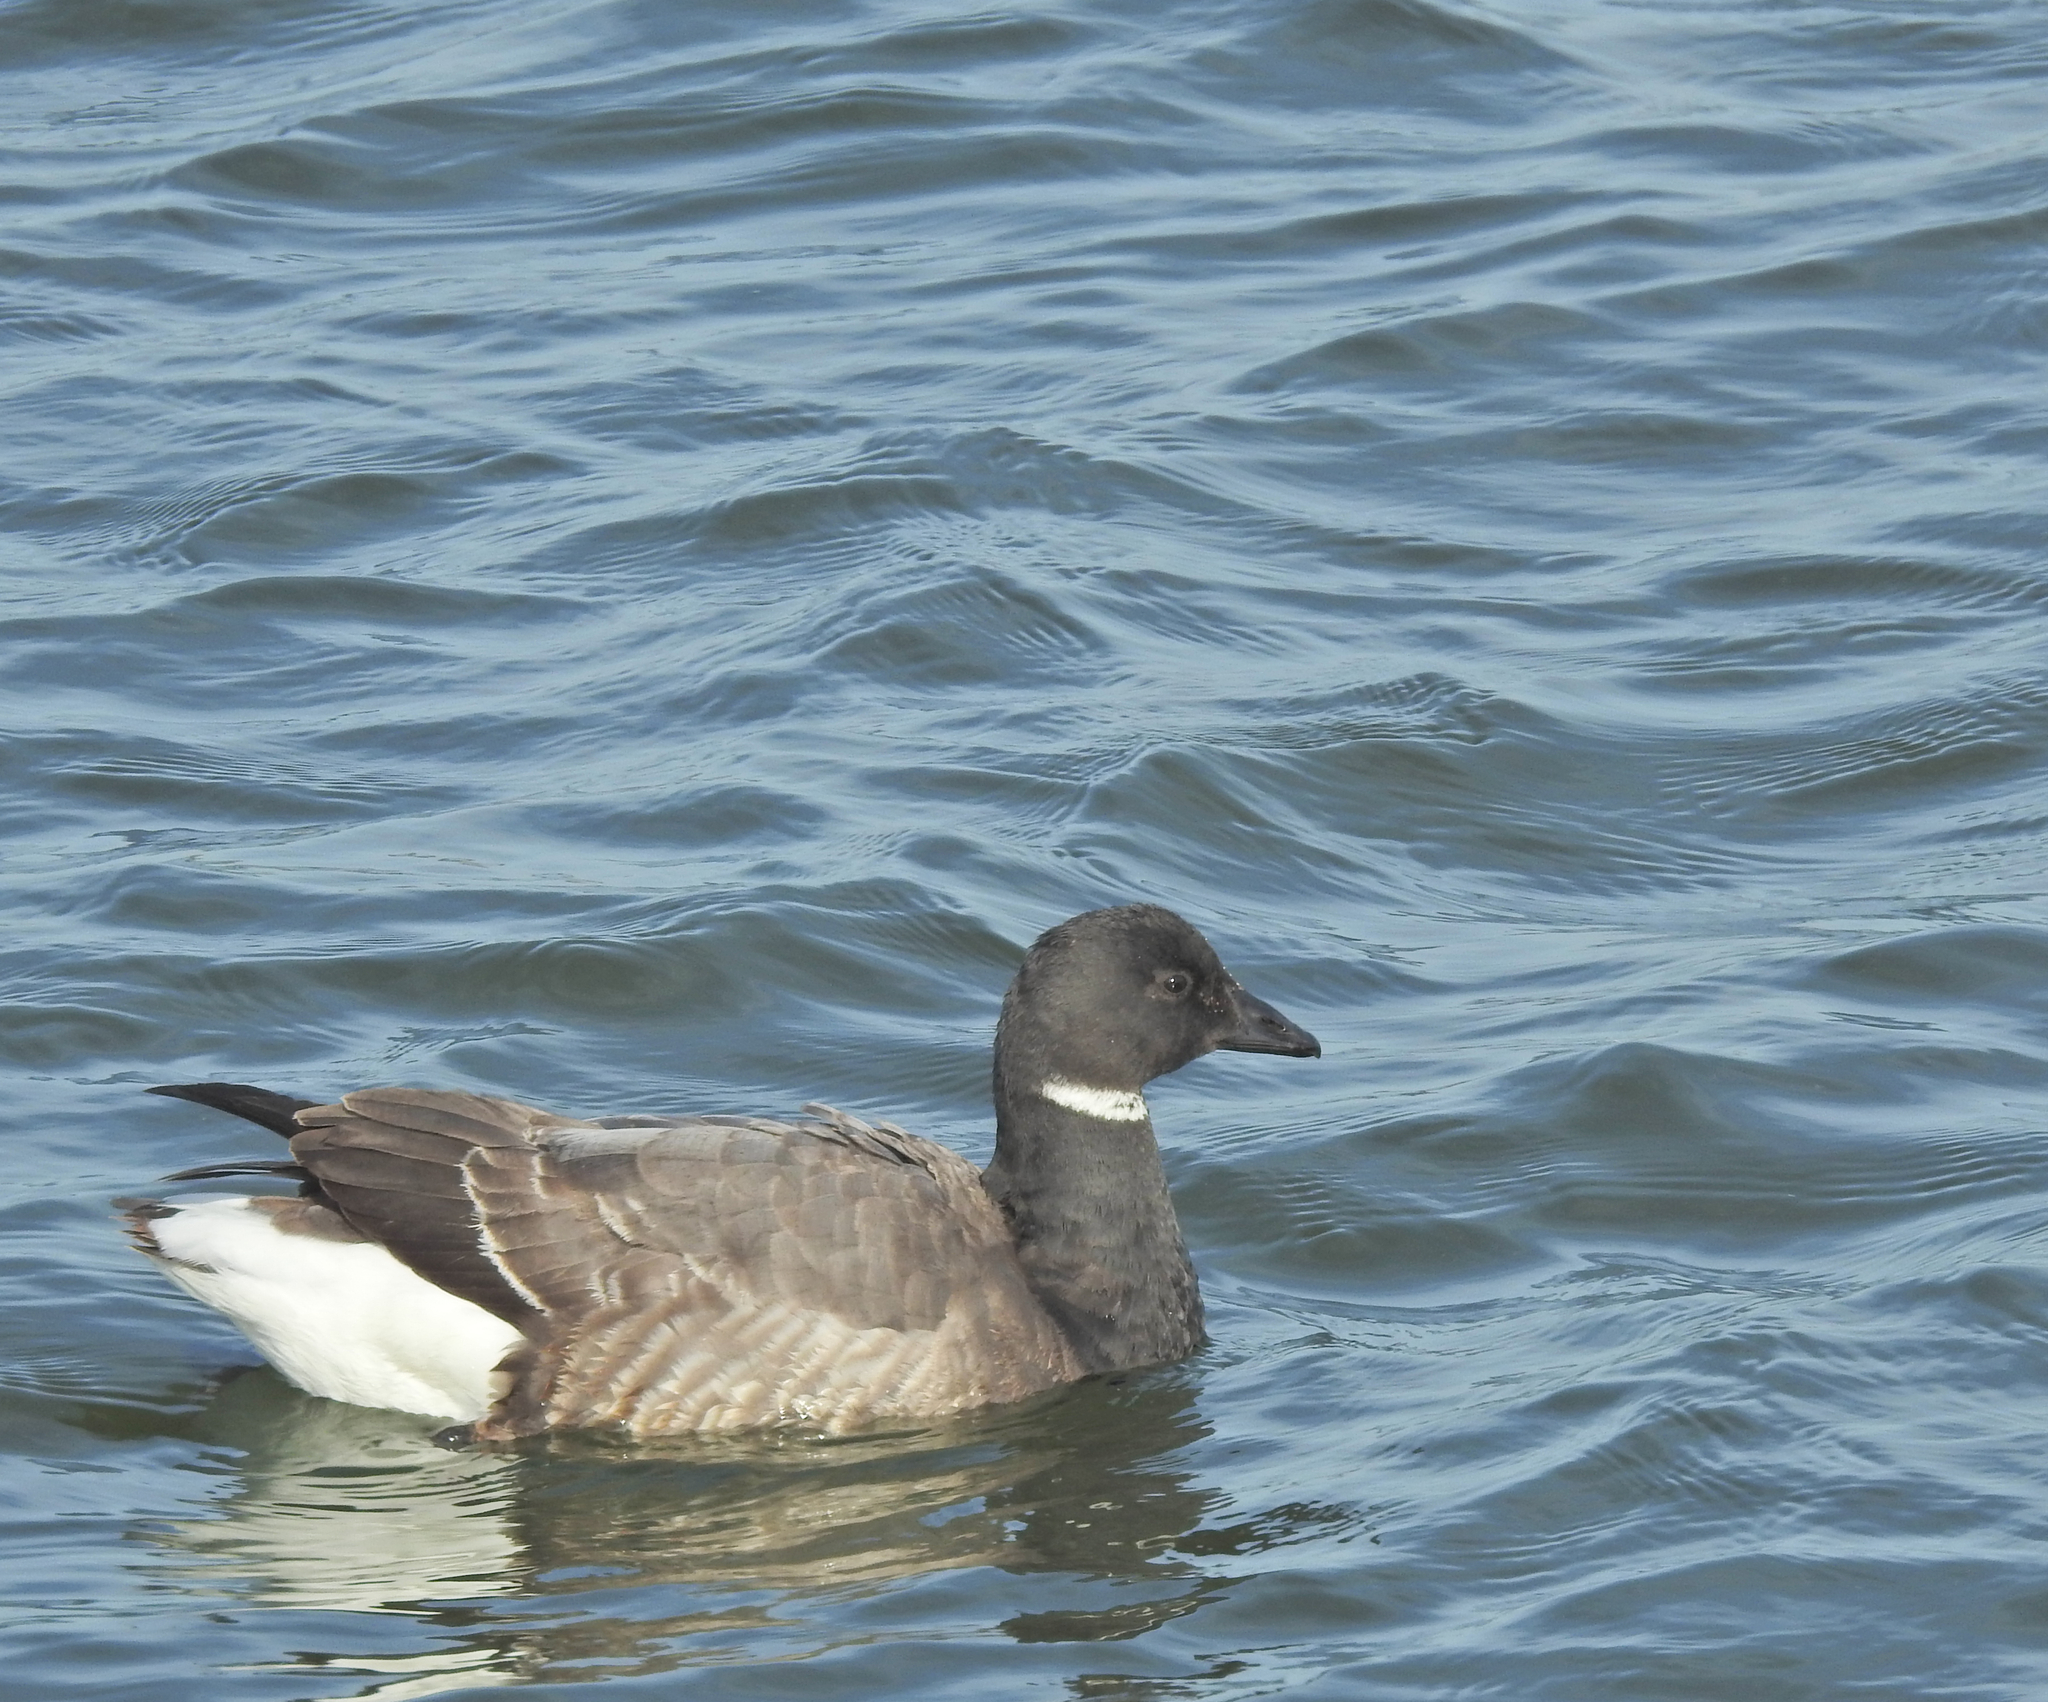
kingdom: Animalia
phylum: Chordata
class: Aves
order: Anseriformes
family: Anatidae
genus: Branta
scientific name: Branta bernicla
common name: Brant goose
